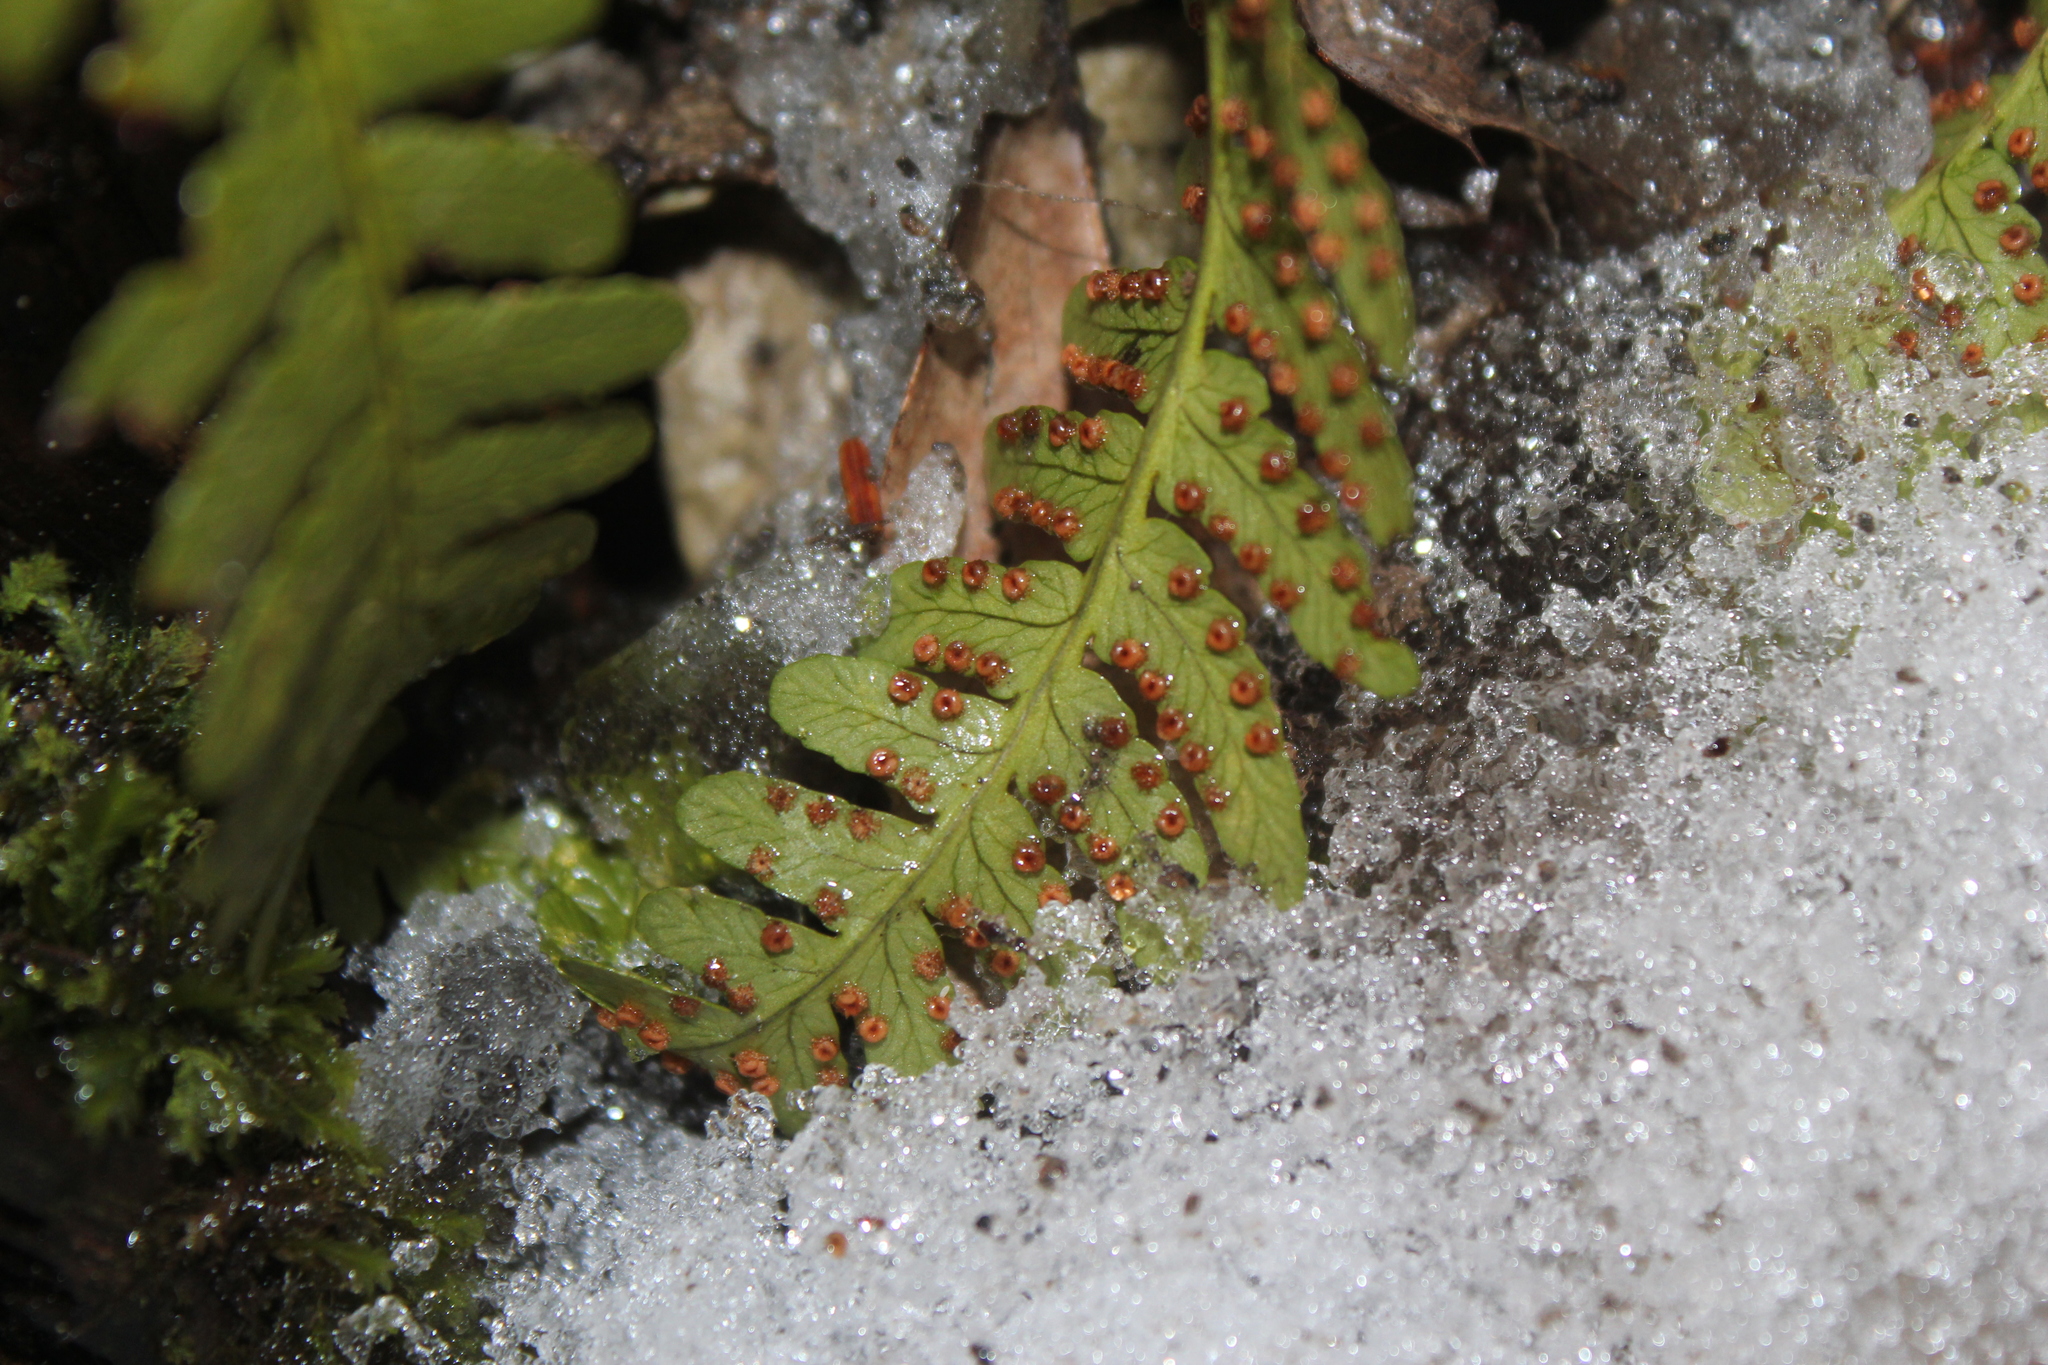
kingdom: Plantae
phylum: Tracheophyta
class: Polypodiopsida
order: Polypodiales
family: Dryopteridaceae
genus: Dryopteris
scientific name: Dryopteris marginalis
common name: Marginal wood fern
